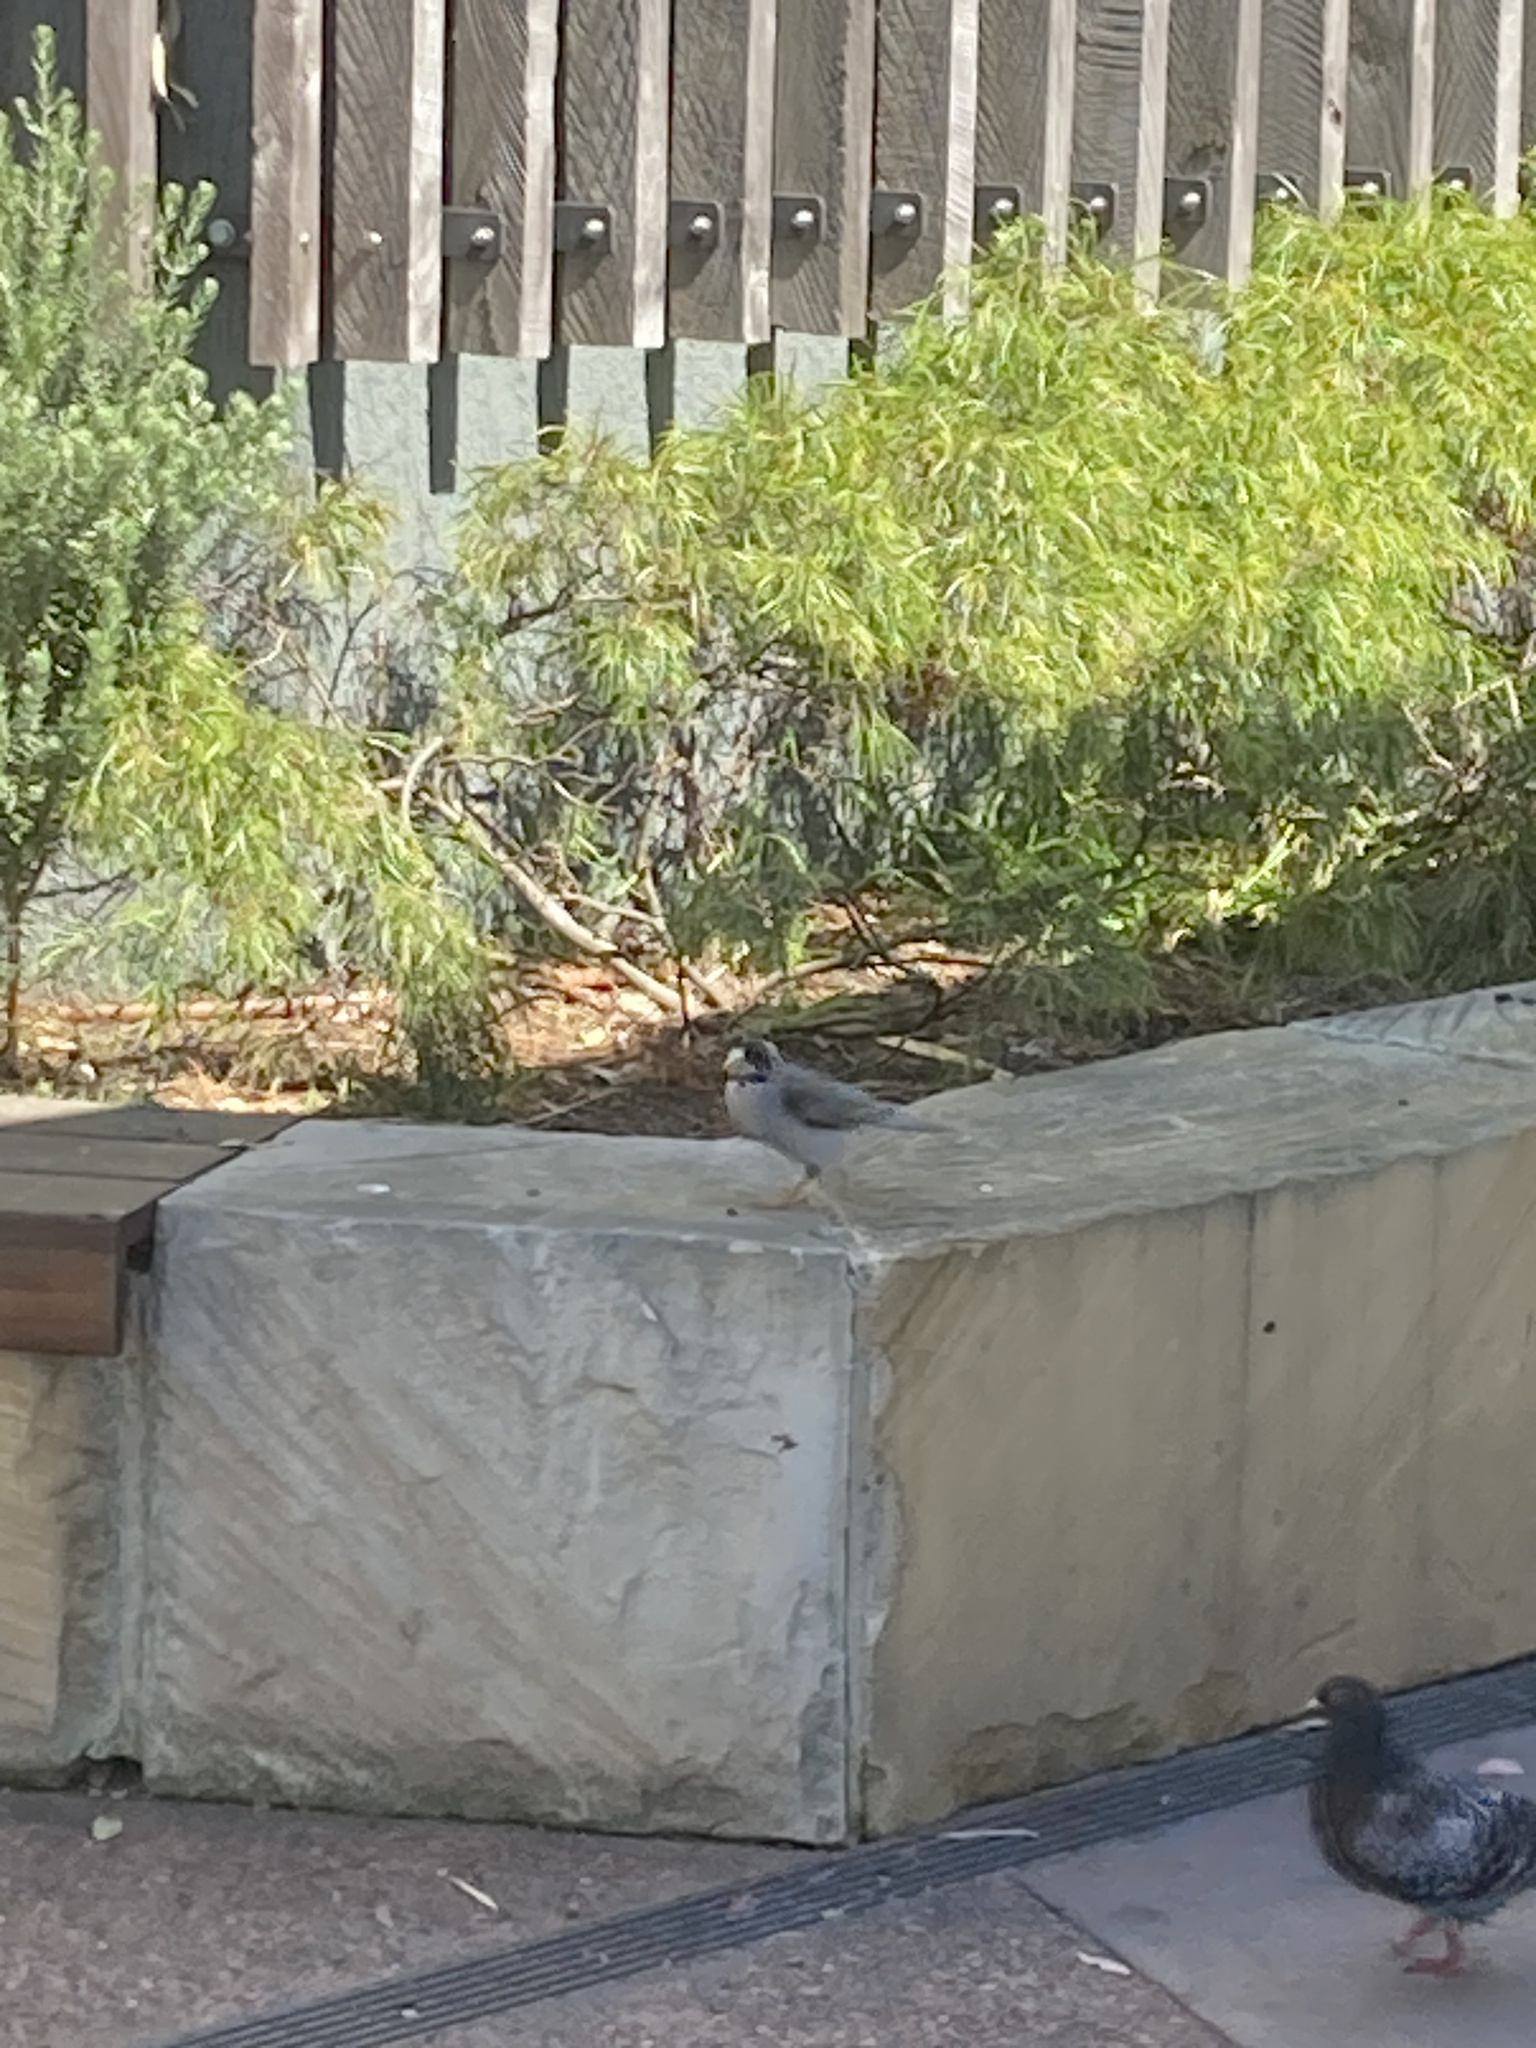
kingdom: Animalia
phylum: Chordata
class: Aves
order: Passeriformes
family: Meliphagidae
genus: Manorina
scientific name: Manorina melanocephala
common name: Noisy miner
